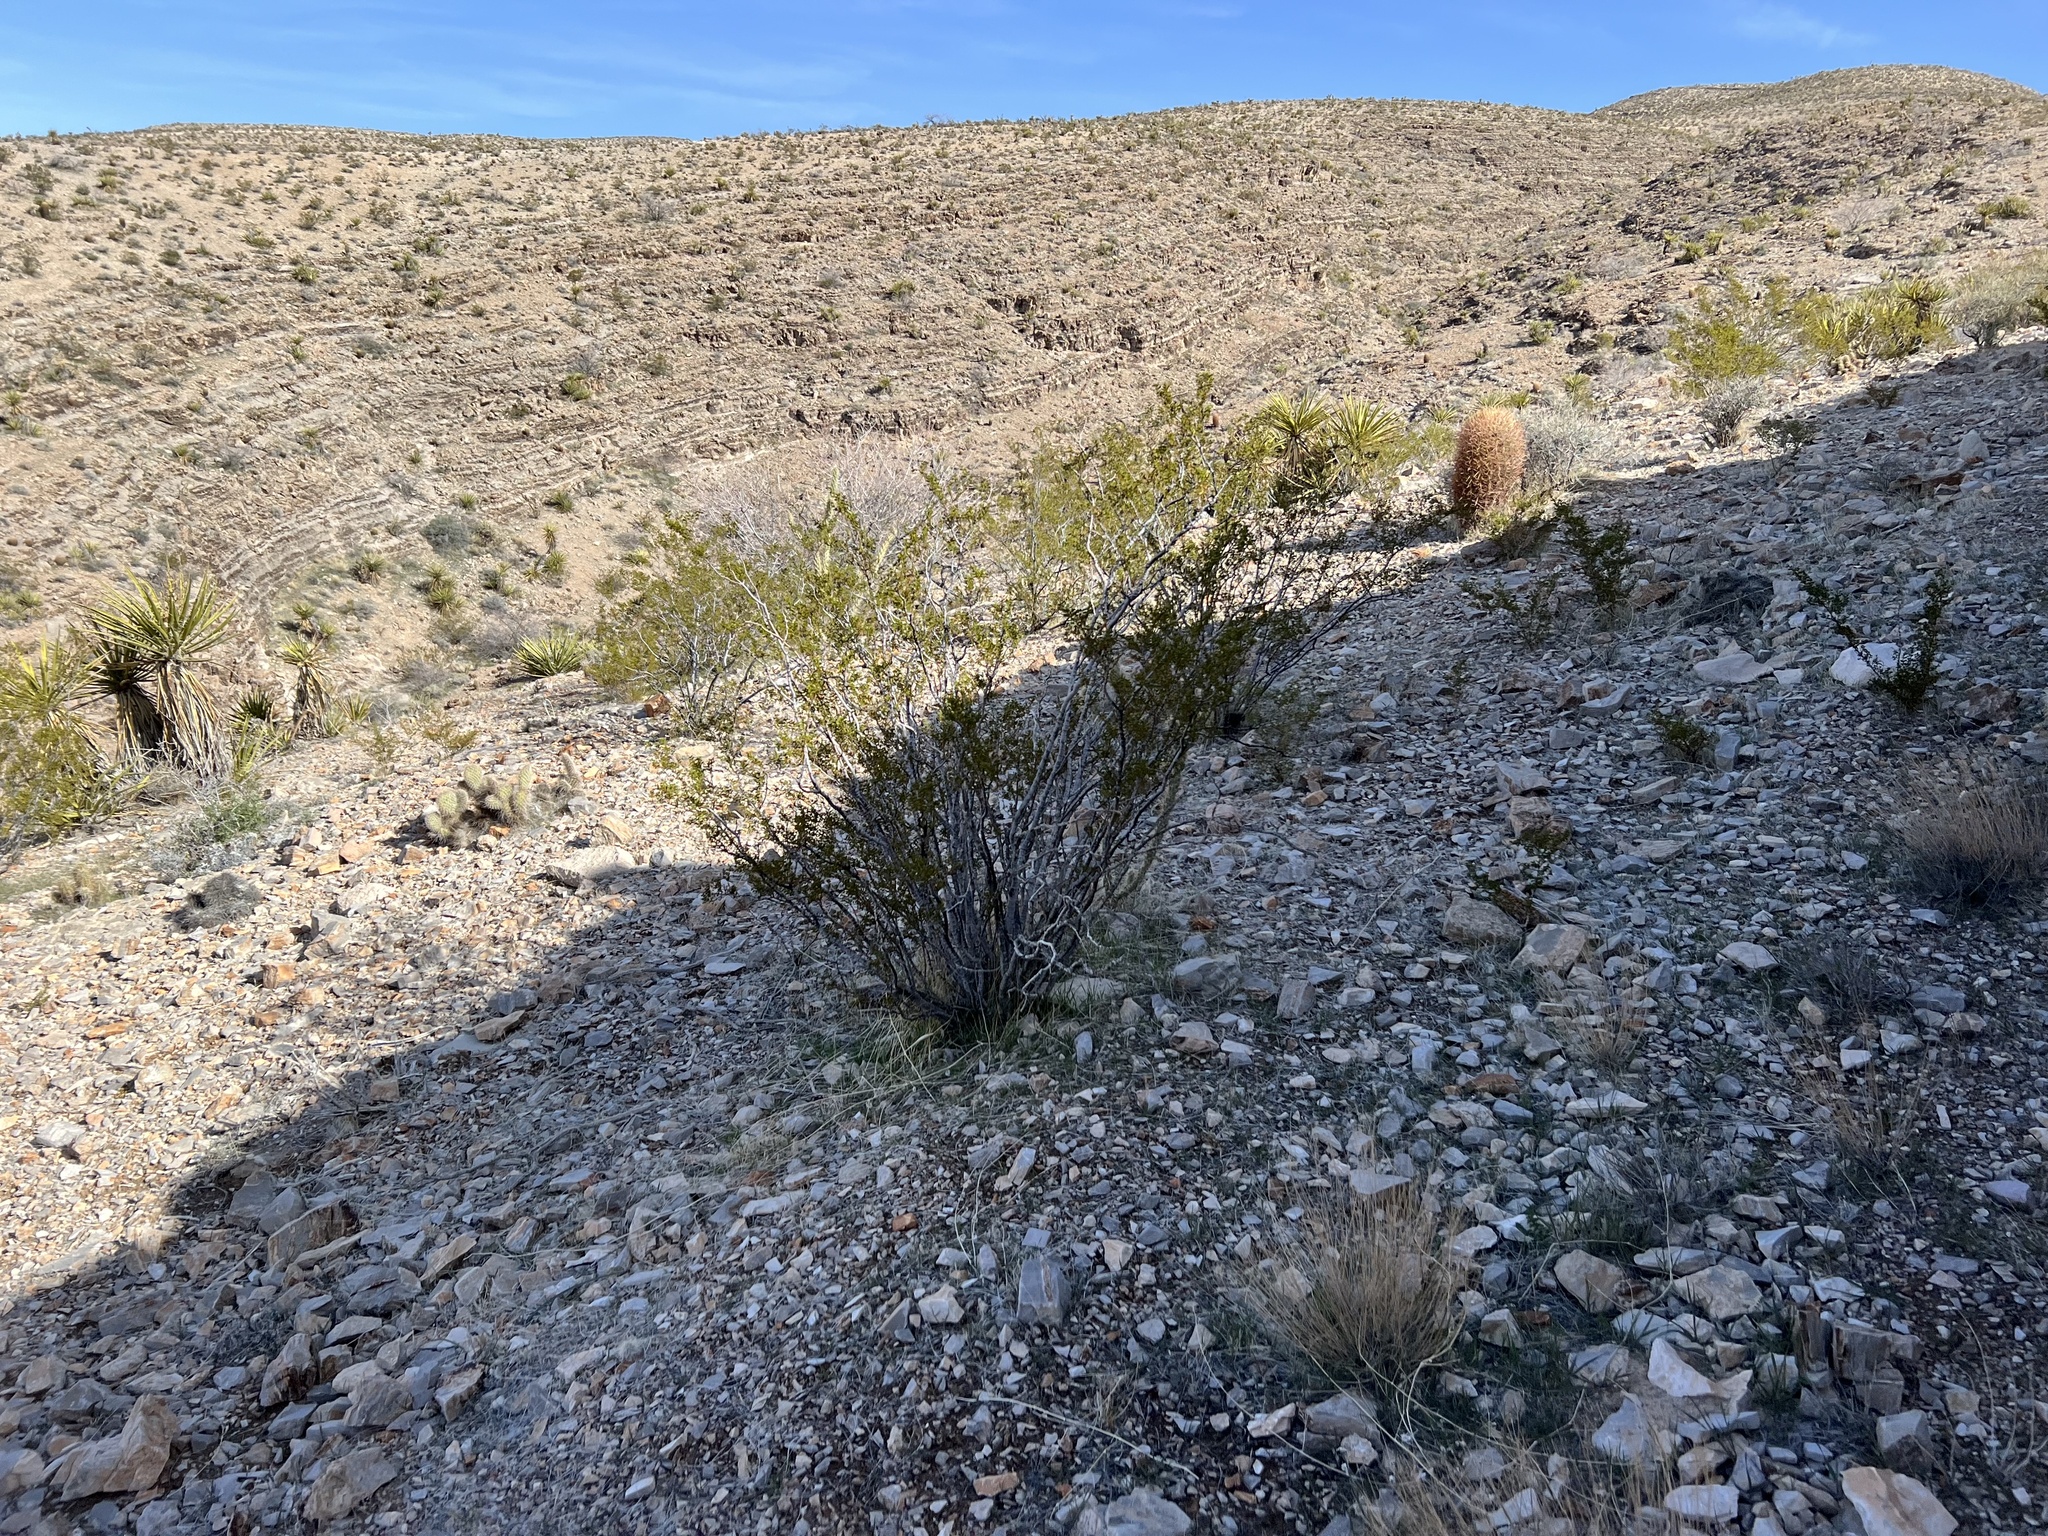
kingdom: Plantae
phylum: Tracheophyta
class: Magnoliopsida
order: Zygophyllales
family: Zygophyllaceae
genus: Larrea
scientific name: Larrea tridentata
